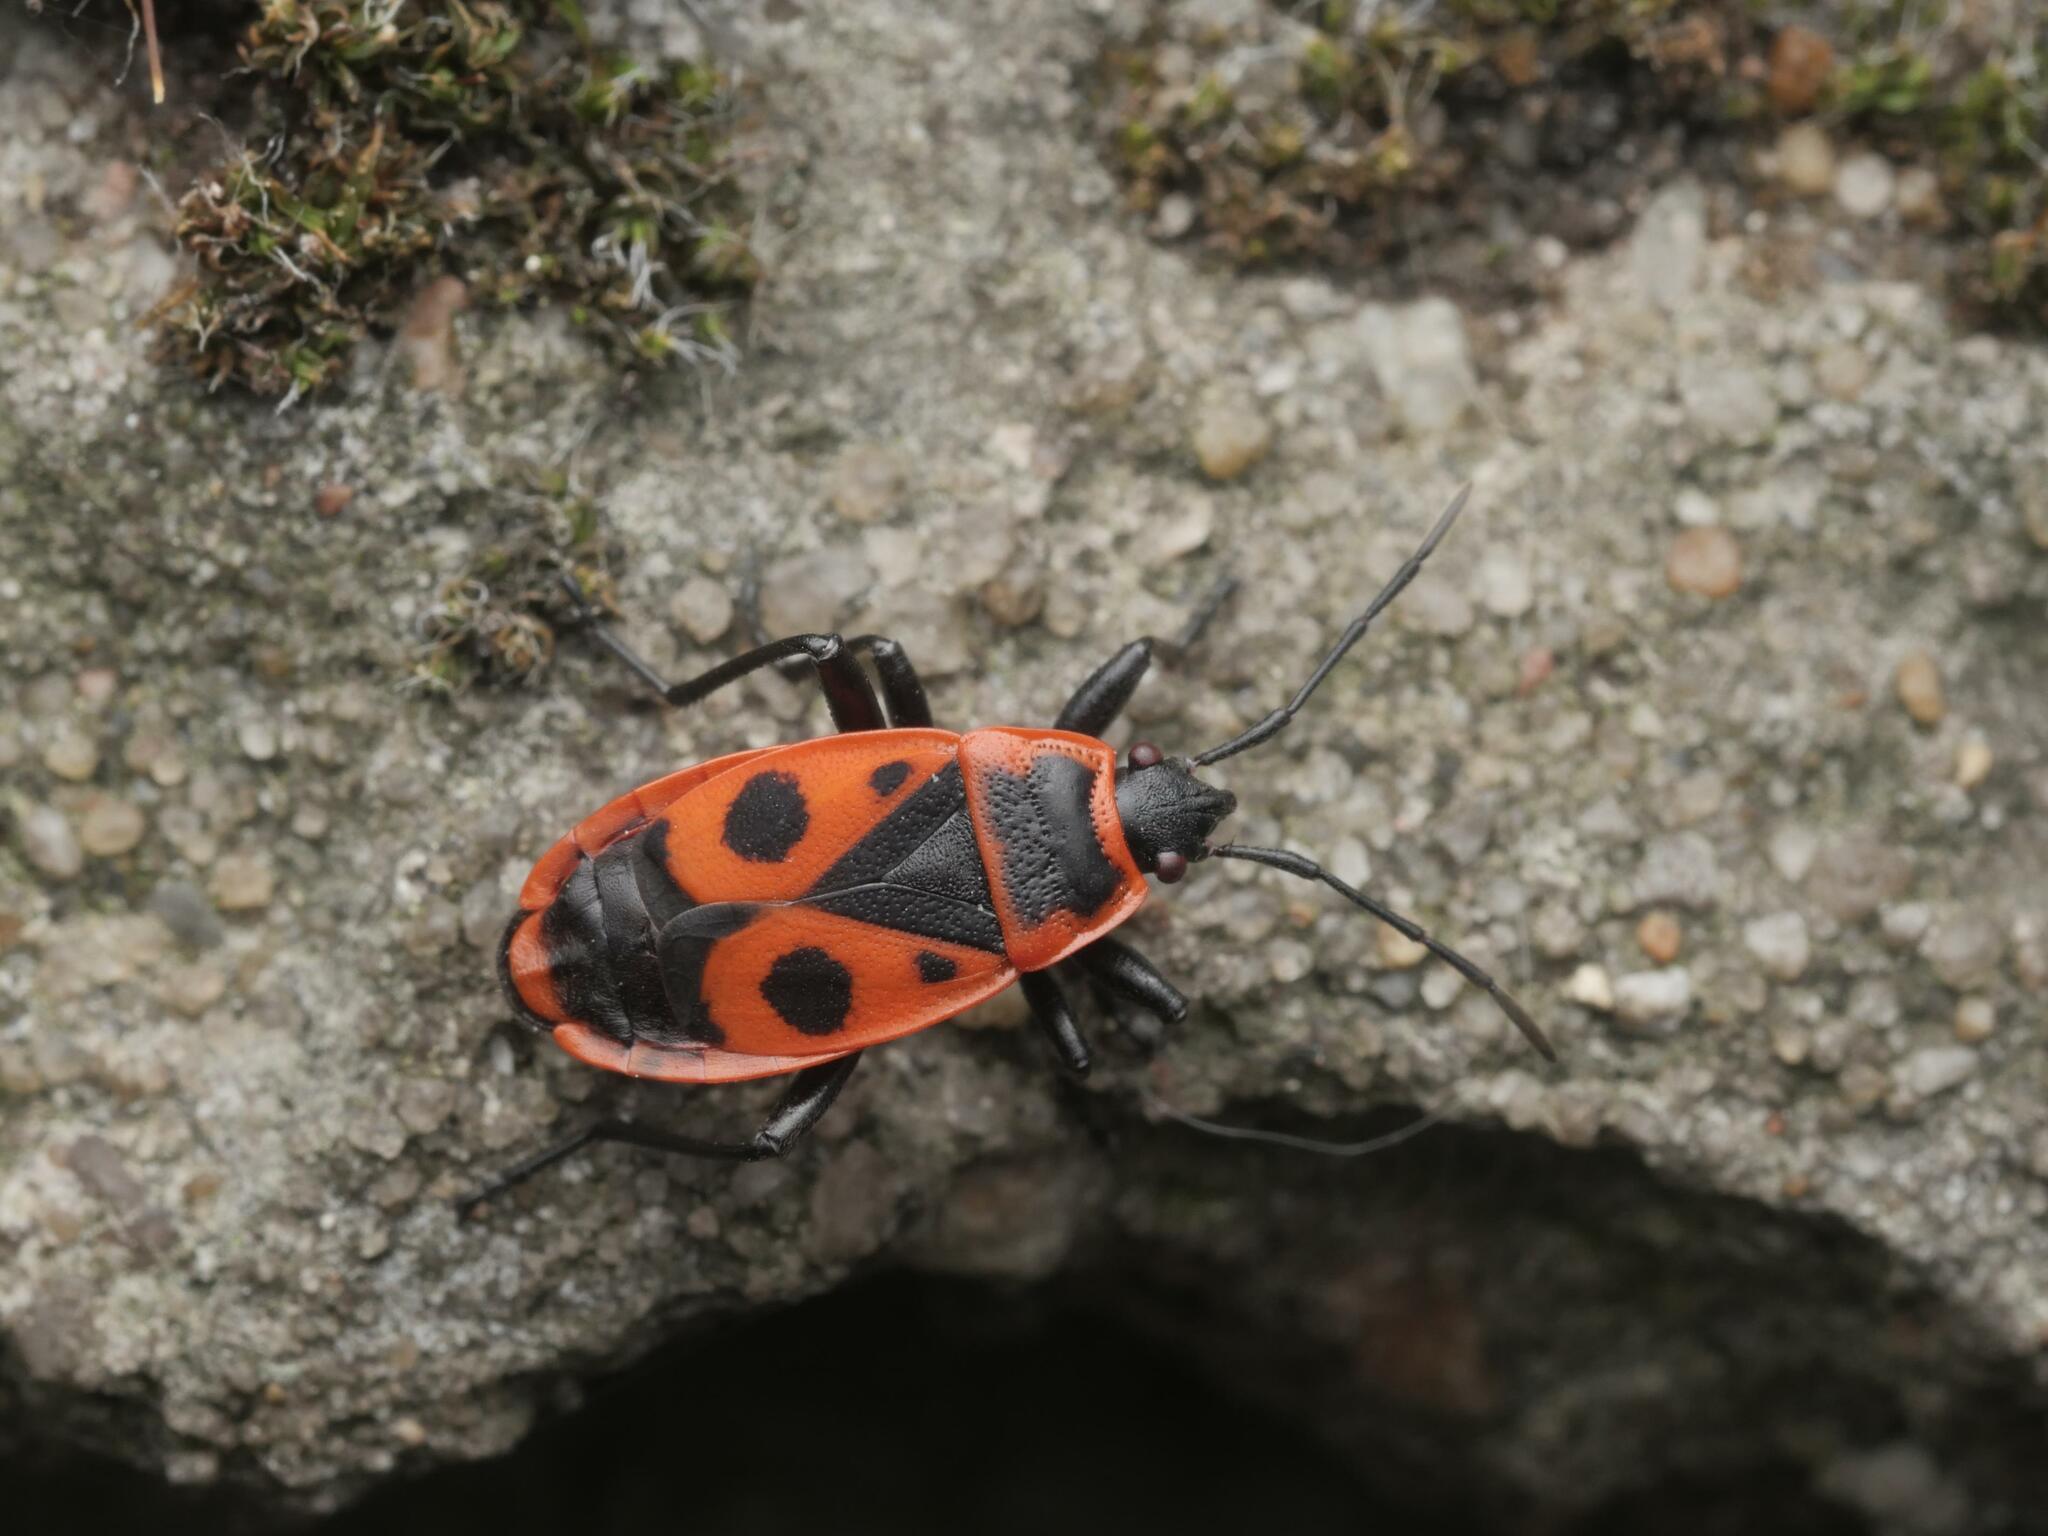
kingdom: Animalia
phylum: Arthropoda
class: Insecta
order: Hemiptera
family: Pyrrhocoridae
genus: Pyrrhocoris
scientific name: Pyrrhocoris apterus
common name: Firebug
